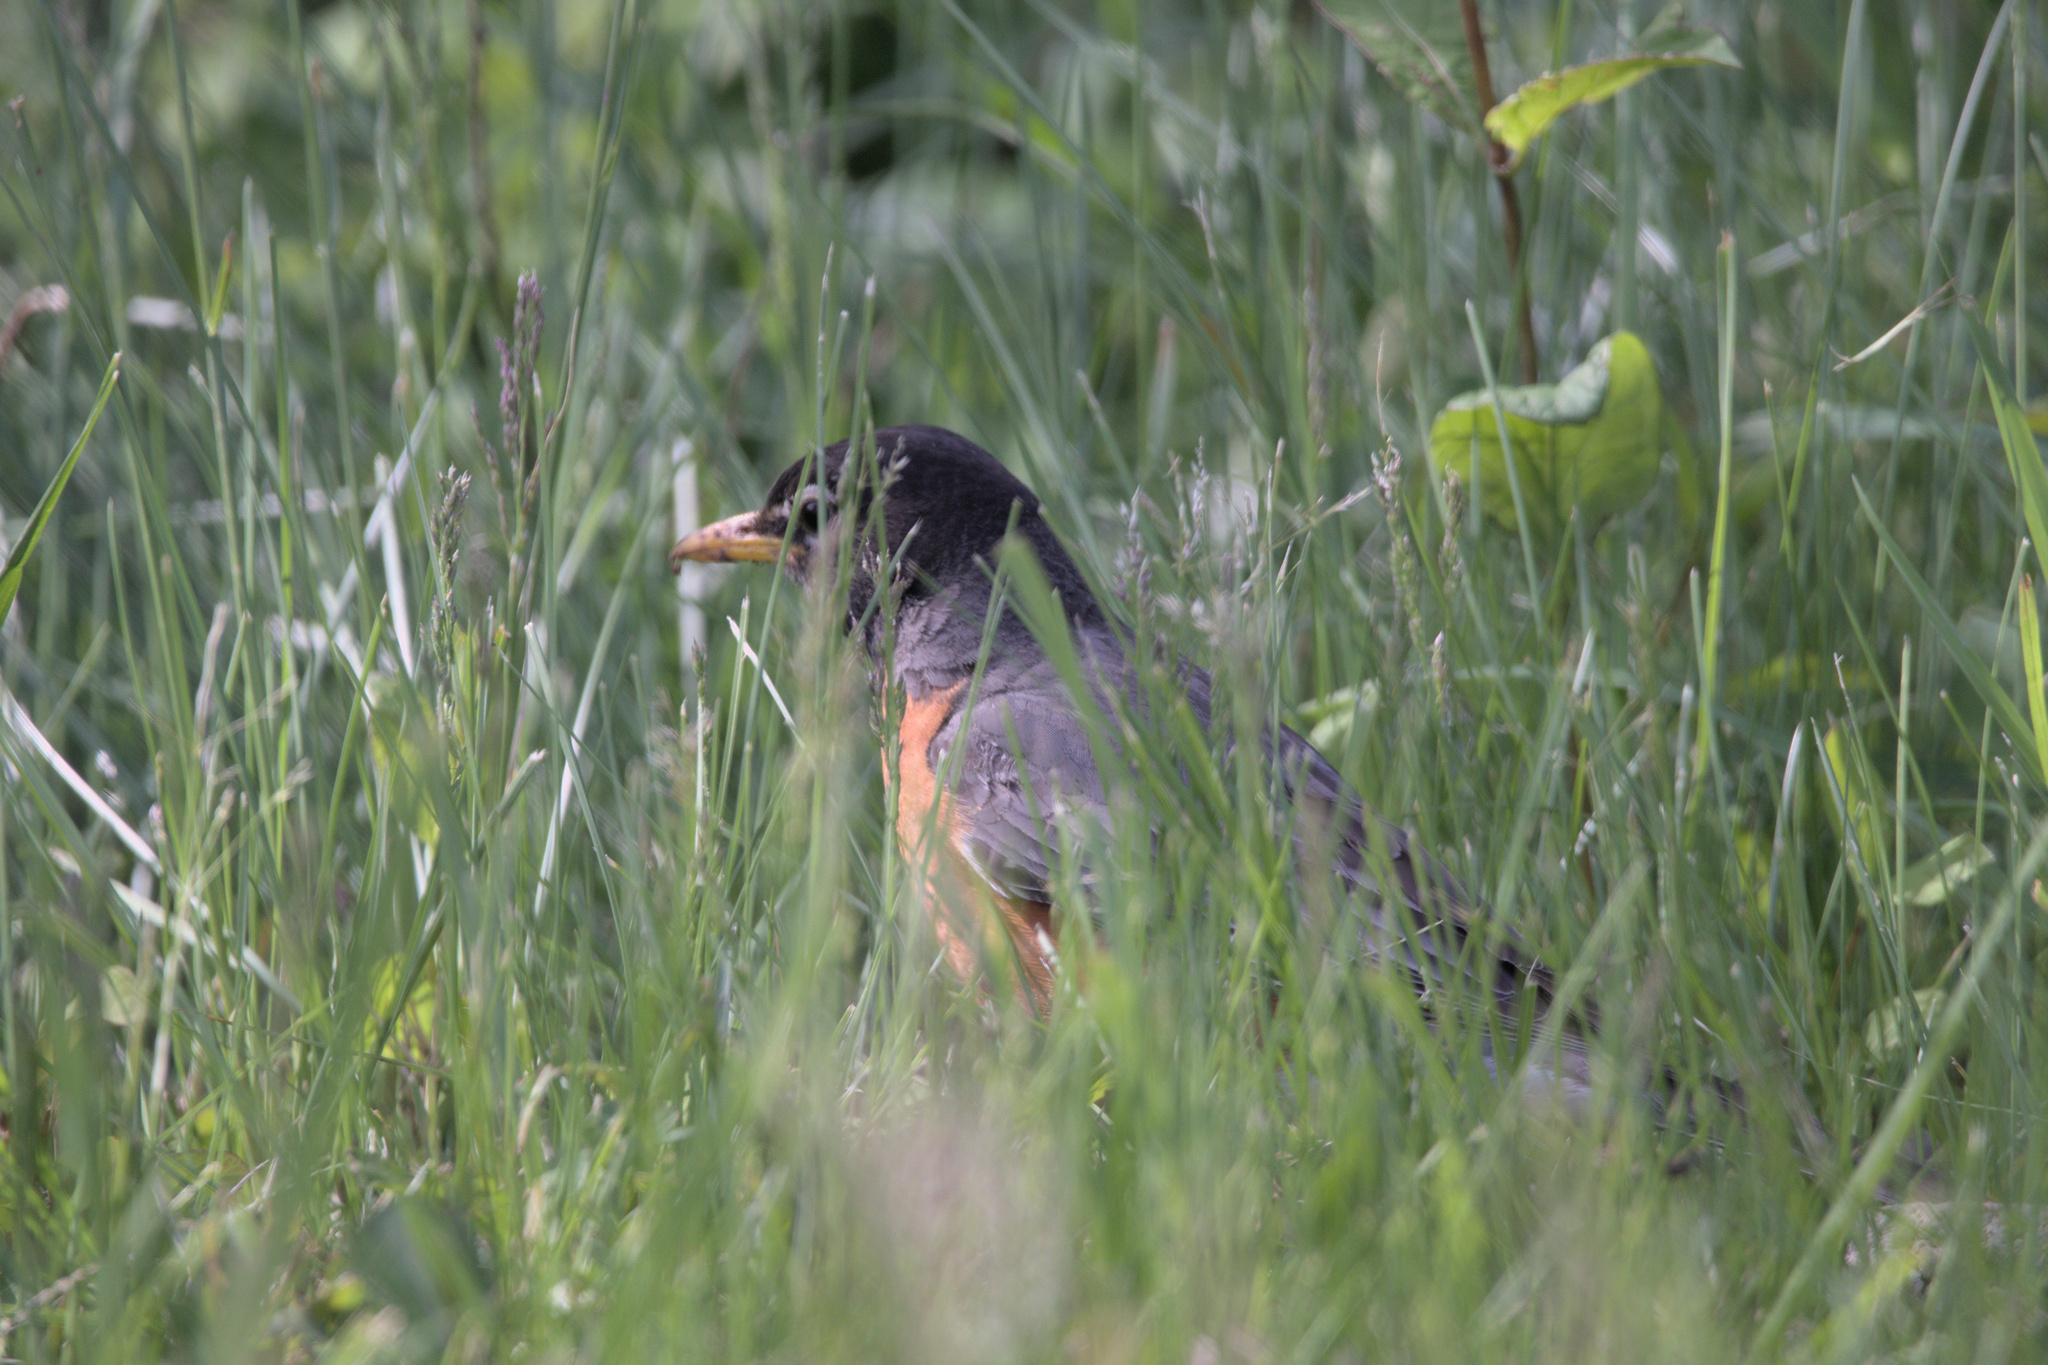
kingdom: Animalia
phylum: Chordata
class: Aves
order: Passeriformes
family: Turdidae
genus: Turdus
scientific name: Turdus migratorius
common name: American robin
